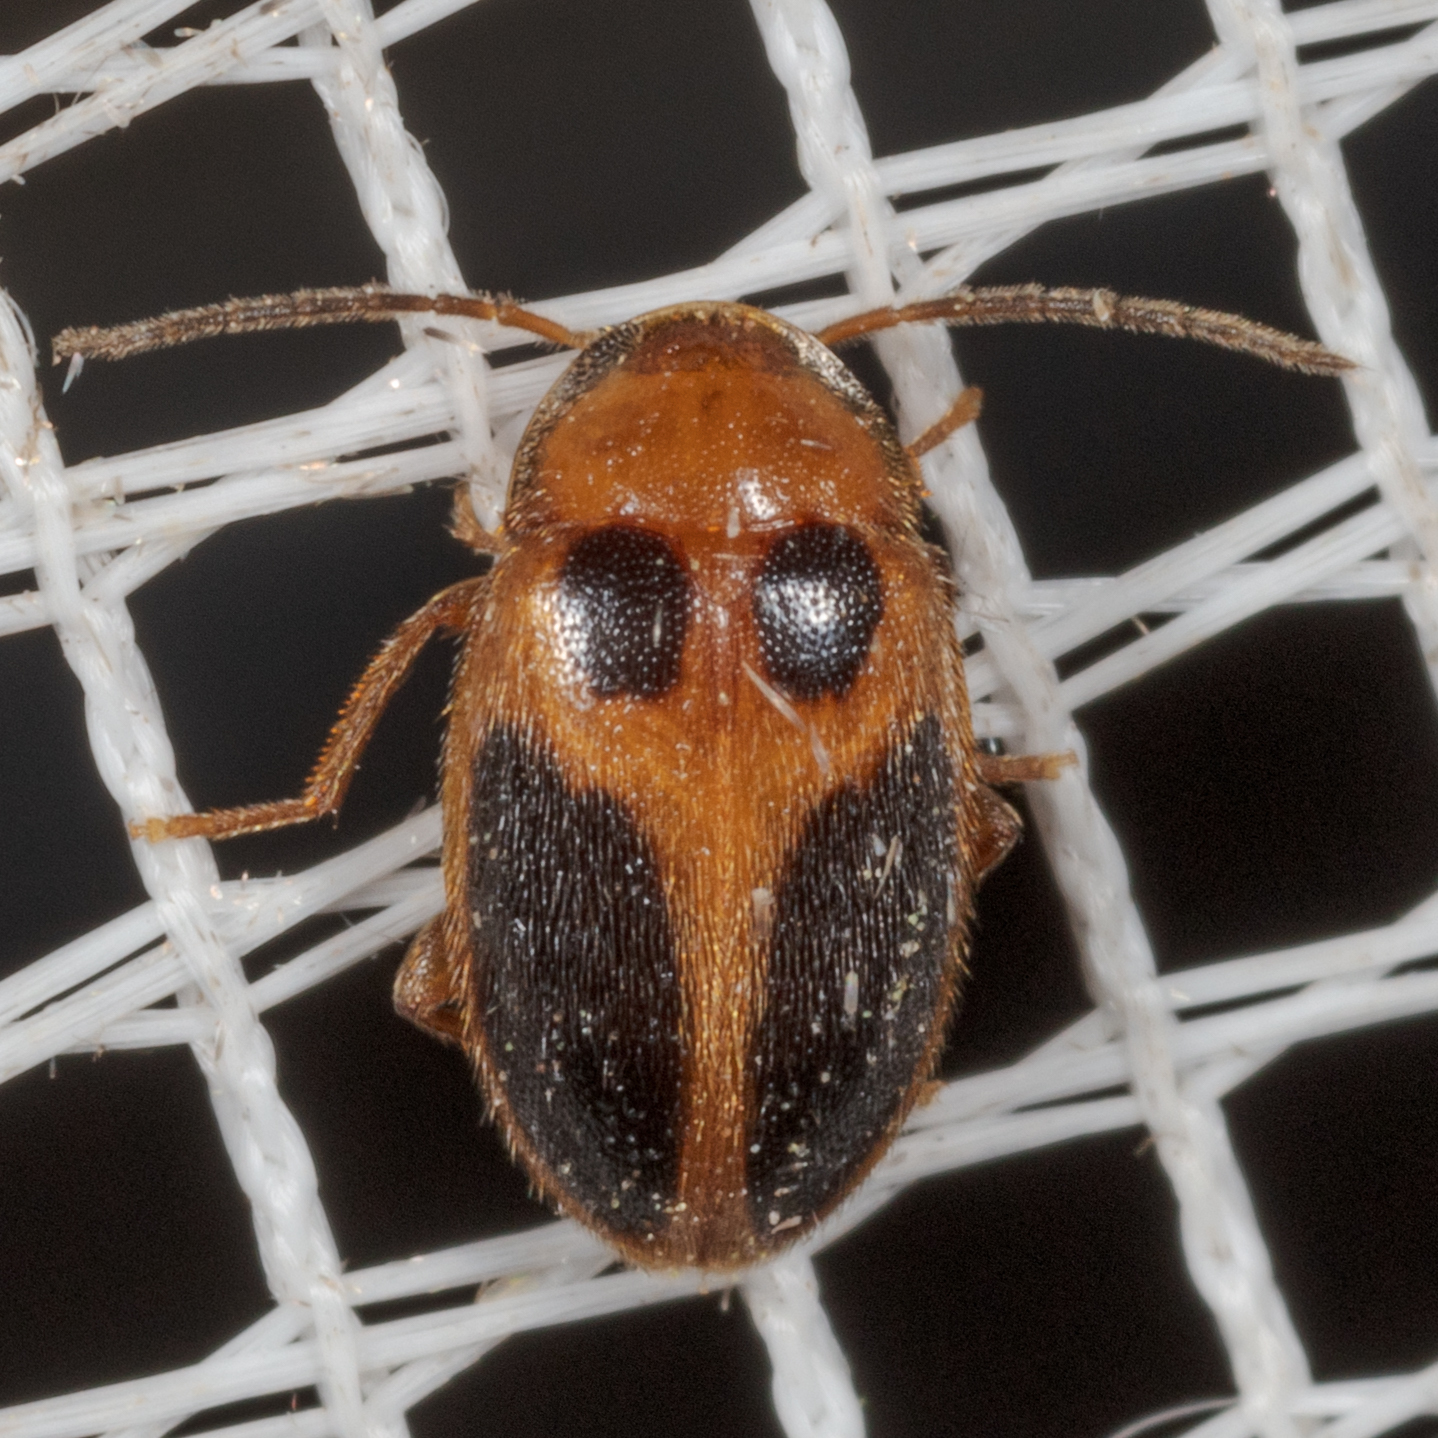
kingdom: Animalia
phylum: Arthropoda
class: Insecta
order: Coleoptera
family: Scirtidae
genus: Sacodes
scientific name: Sacodes pulchella
